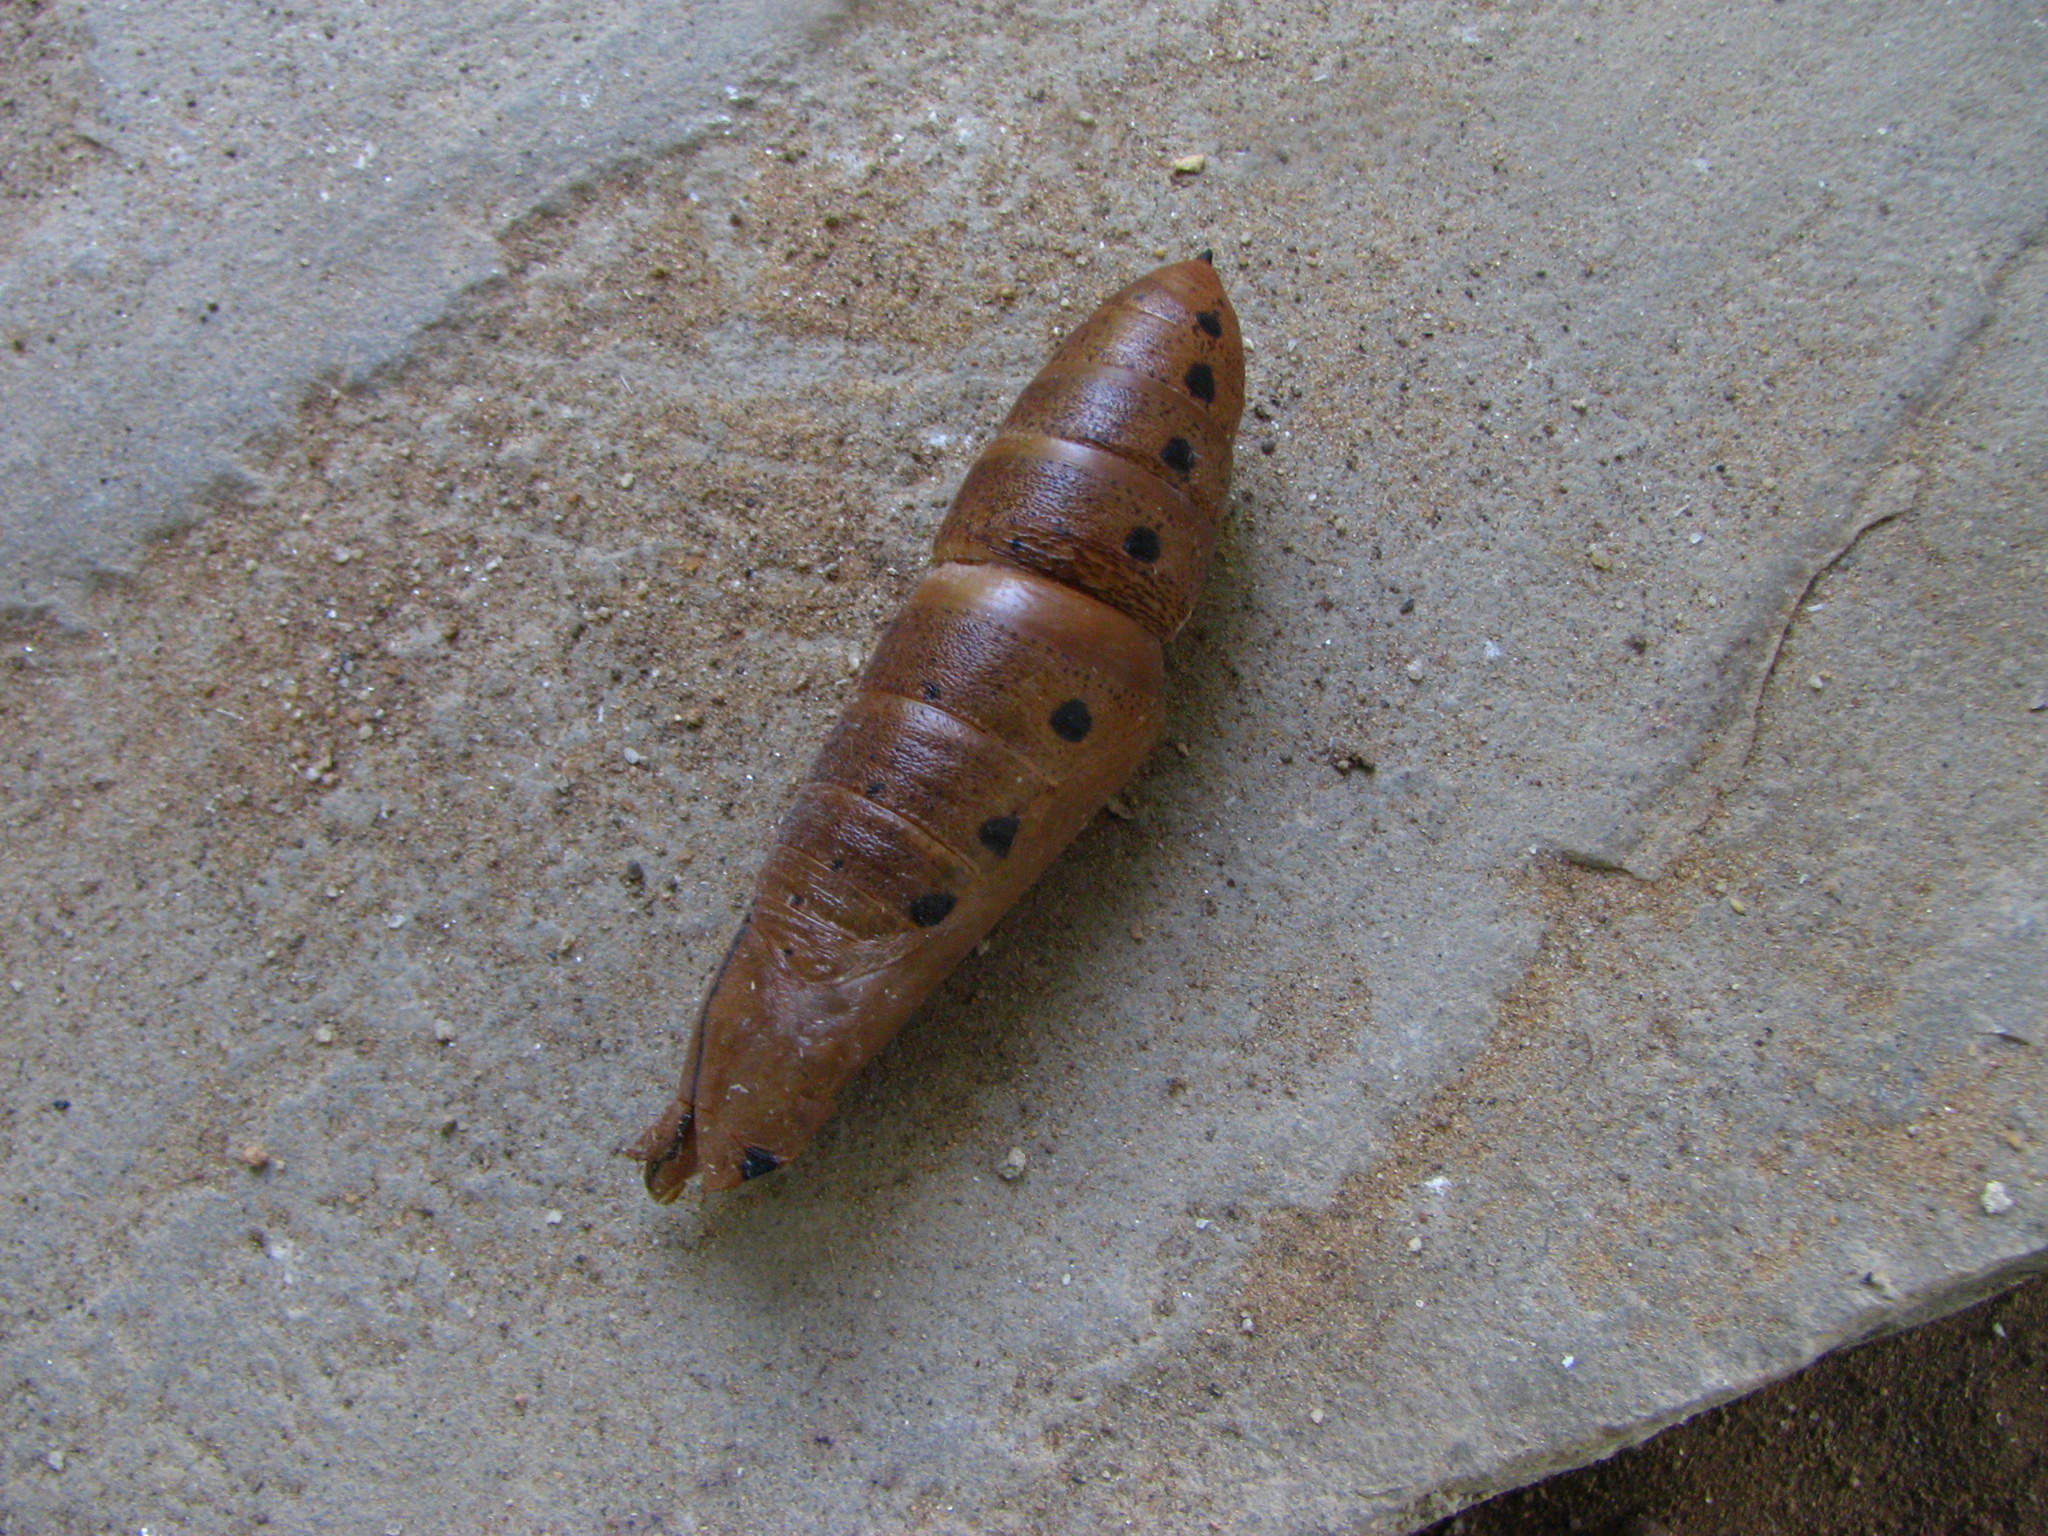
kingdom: Animalia
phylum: Arthropoda
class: Insecta
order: Lepidoptera
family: Sphingidae
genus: Daphnis
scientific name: Daphnis nerii
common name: Oleander hawk-moth
